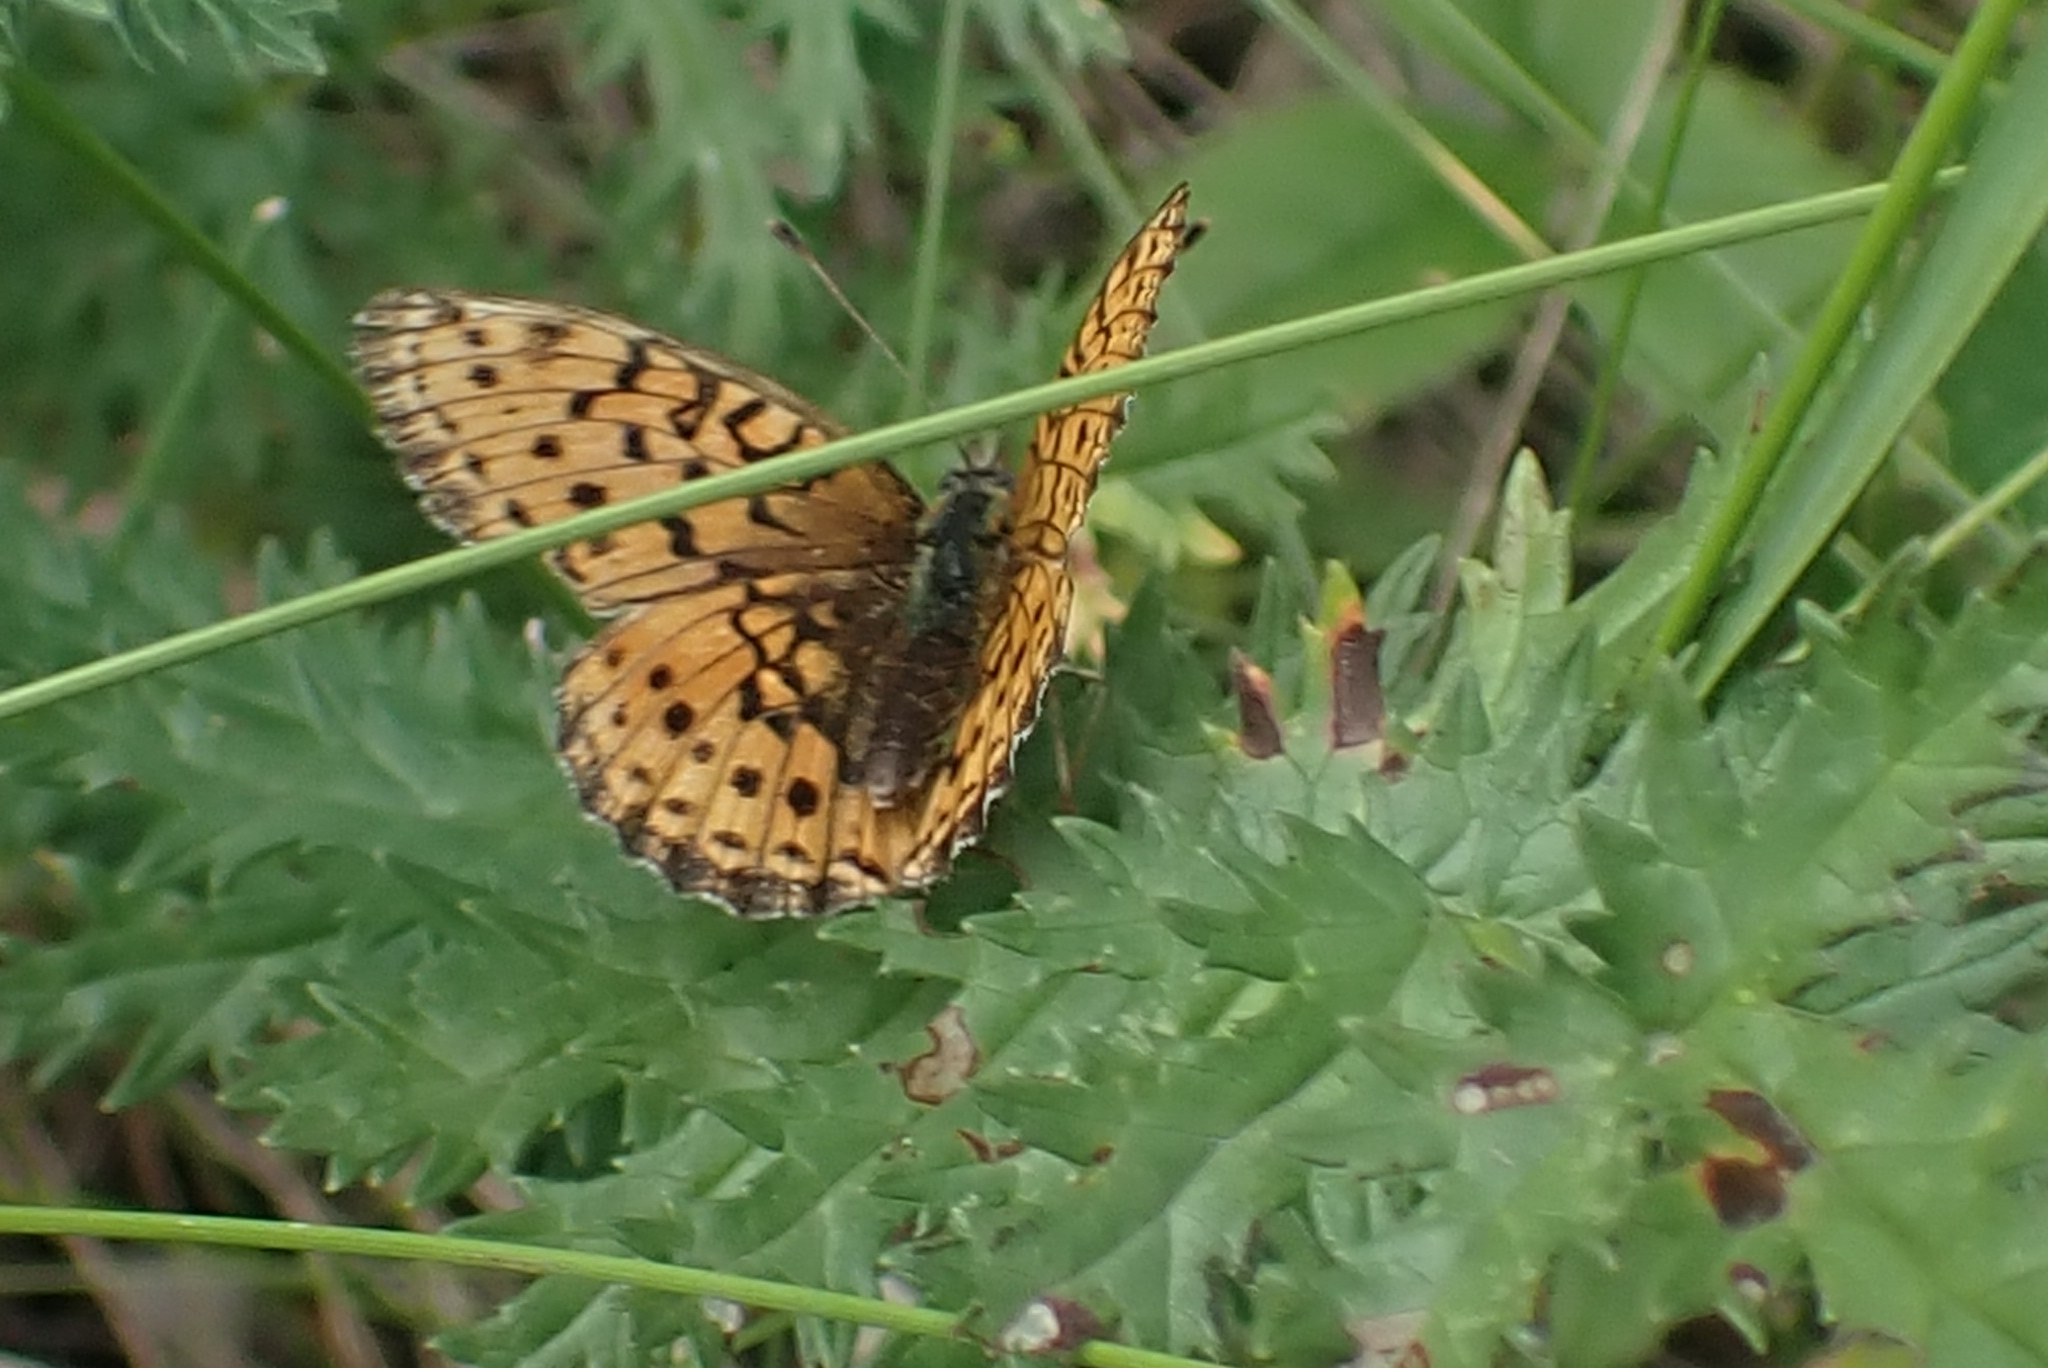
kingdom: Animalia
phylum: Arthropoda
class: Insecta
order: Lepidoptera
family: Nymphalidae
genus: Brenthis
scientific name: Brenthis ino
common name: Lesser marbled fritillary
